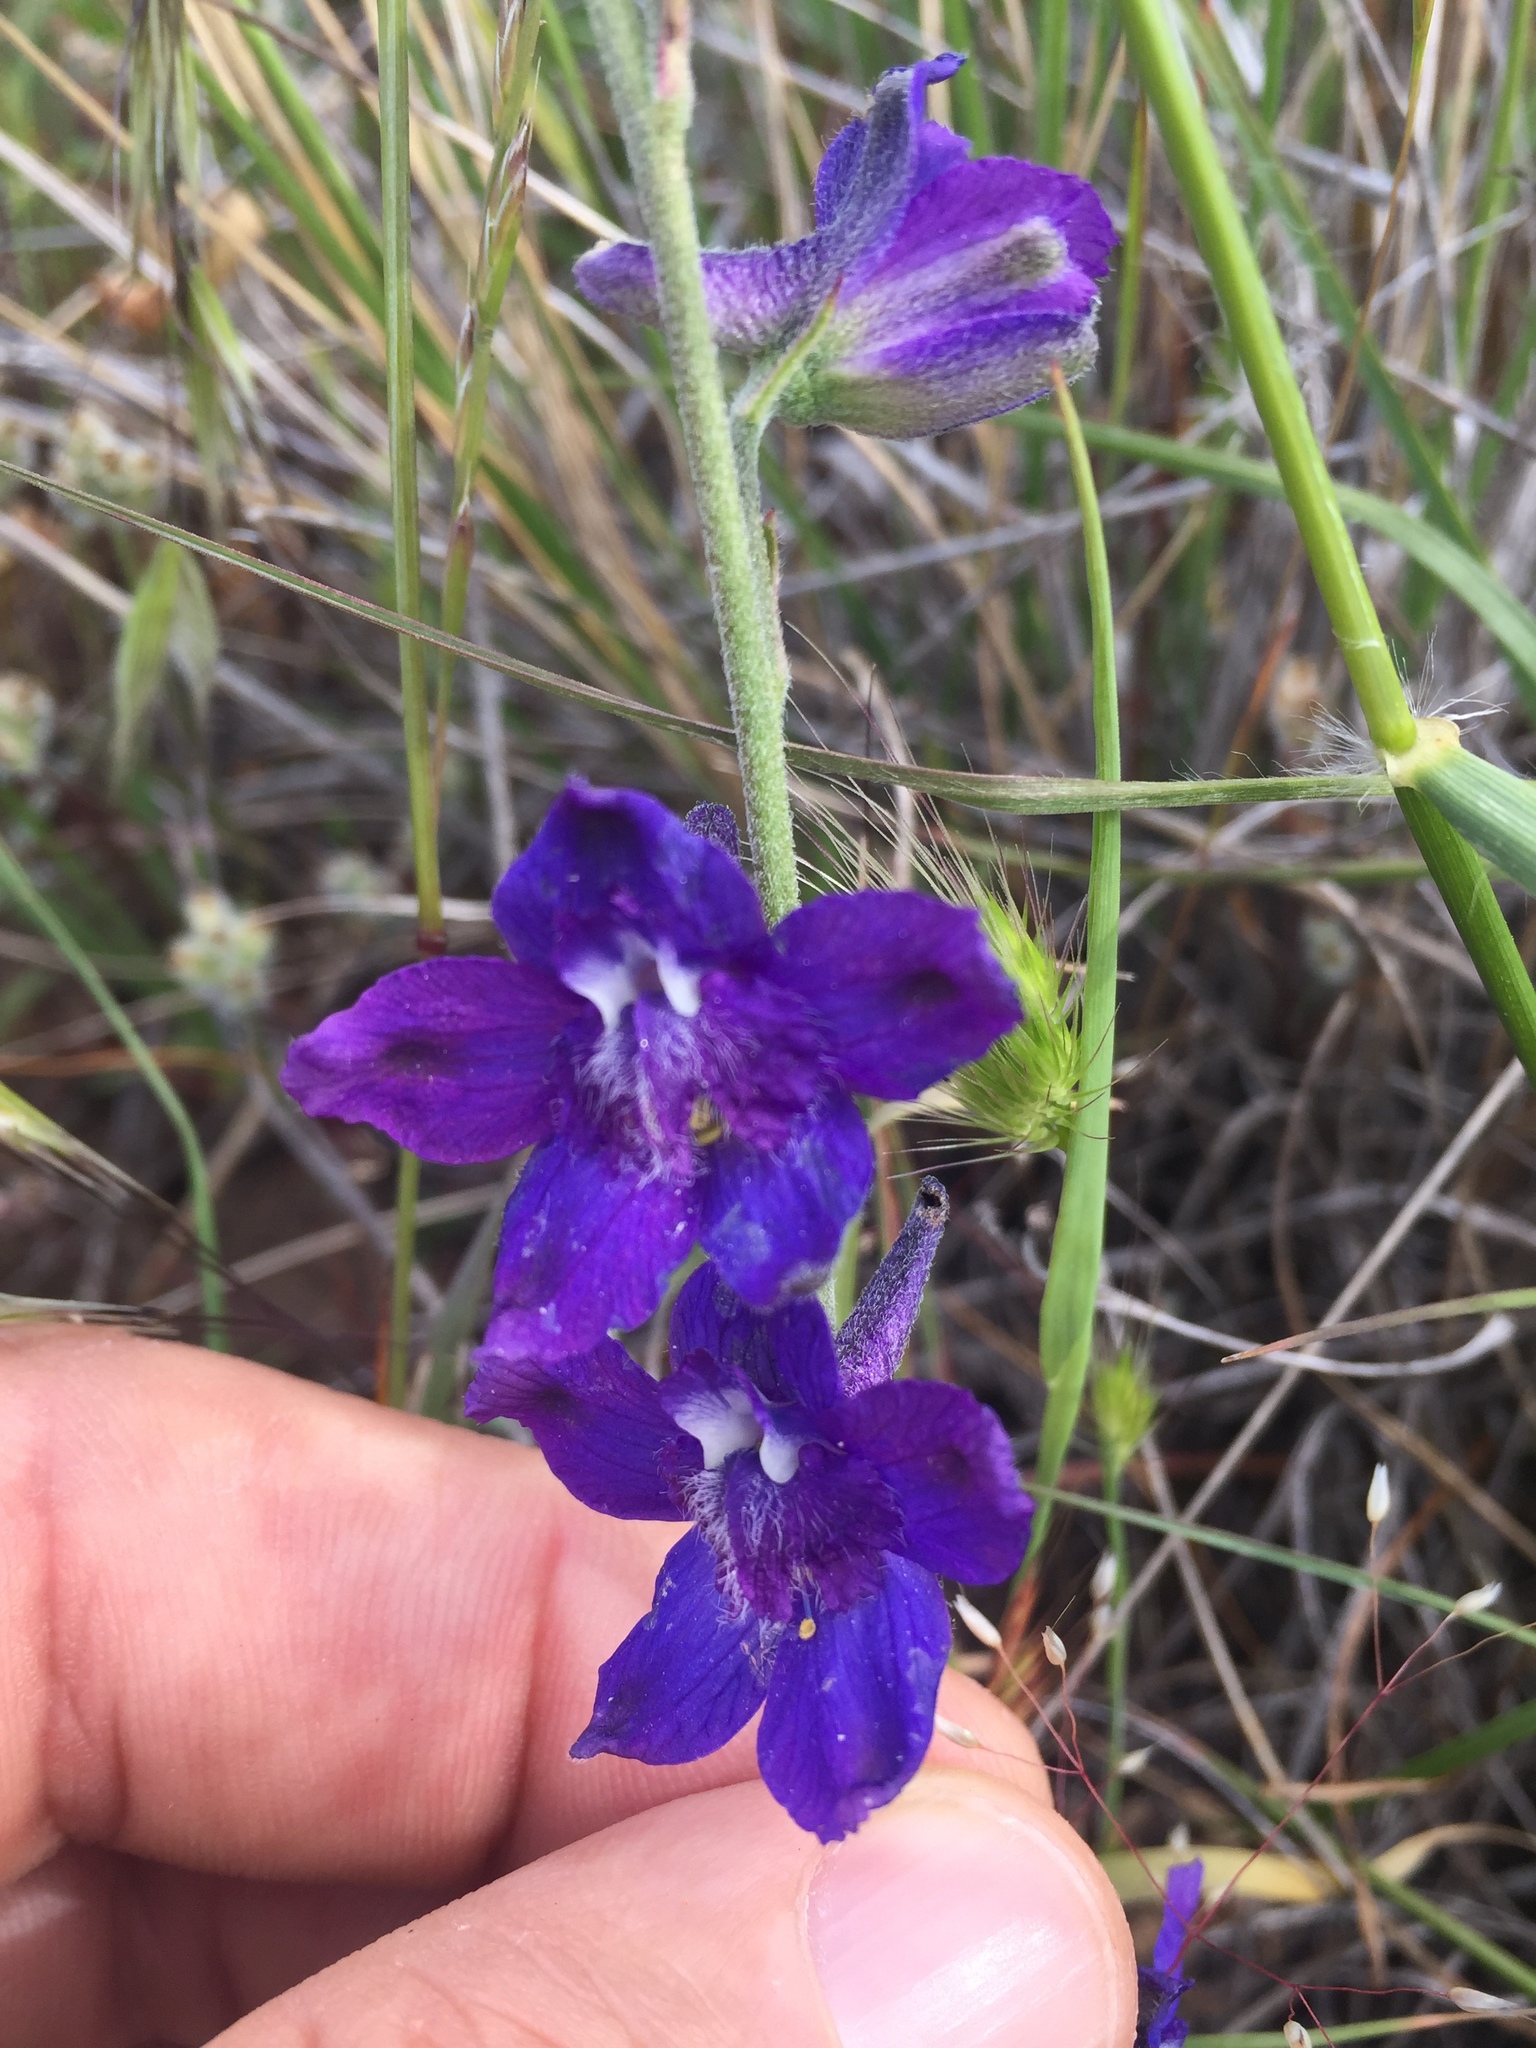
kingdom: Plantae
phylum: Tracheophyta
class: Magnoliopsida
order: Ranunculales
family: Ranunculaceae
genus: Delphinium
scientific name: Delphinium hesperium
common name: Western larkspur
